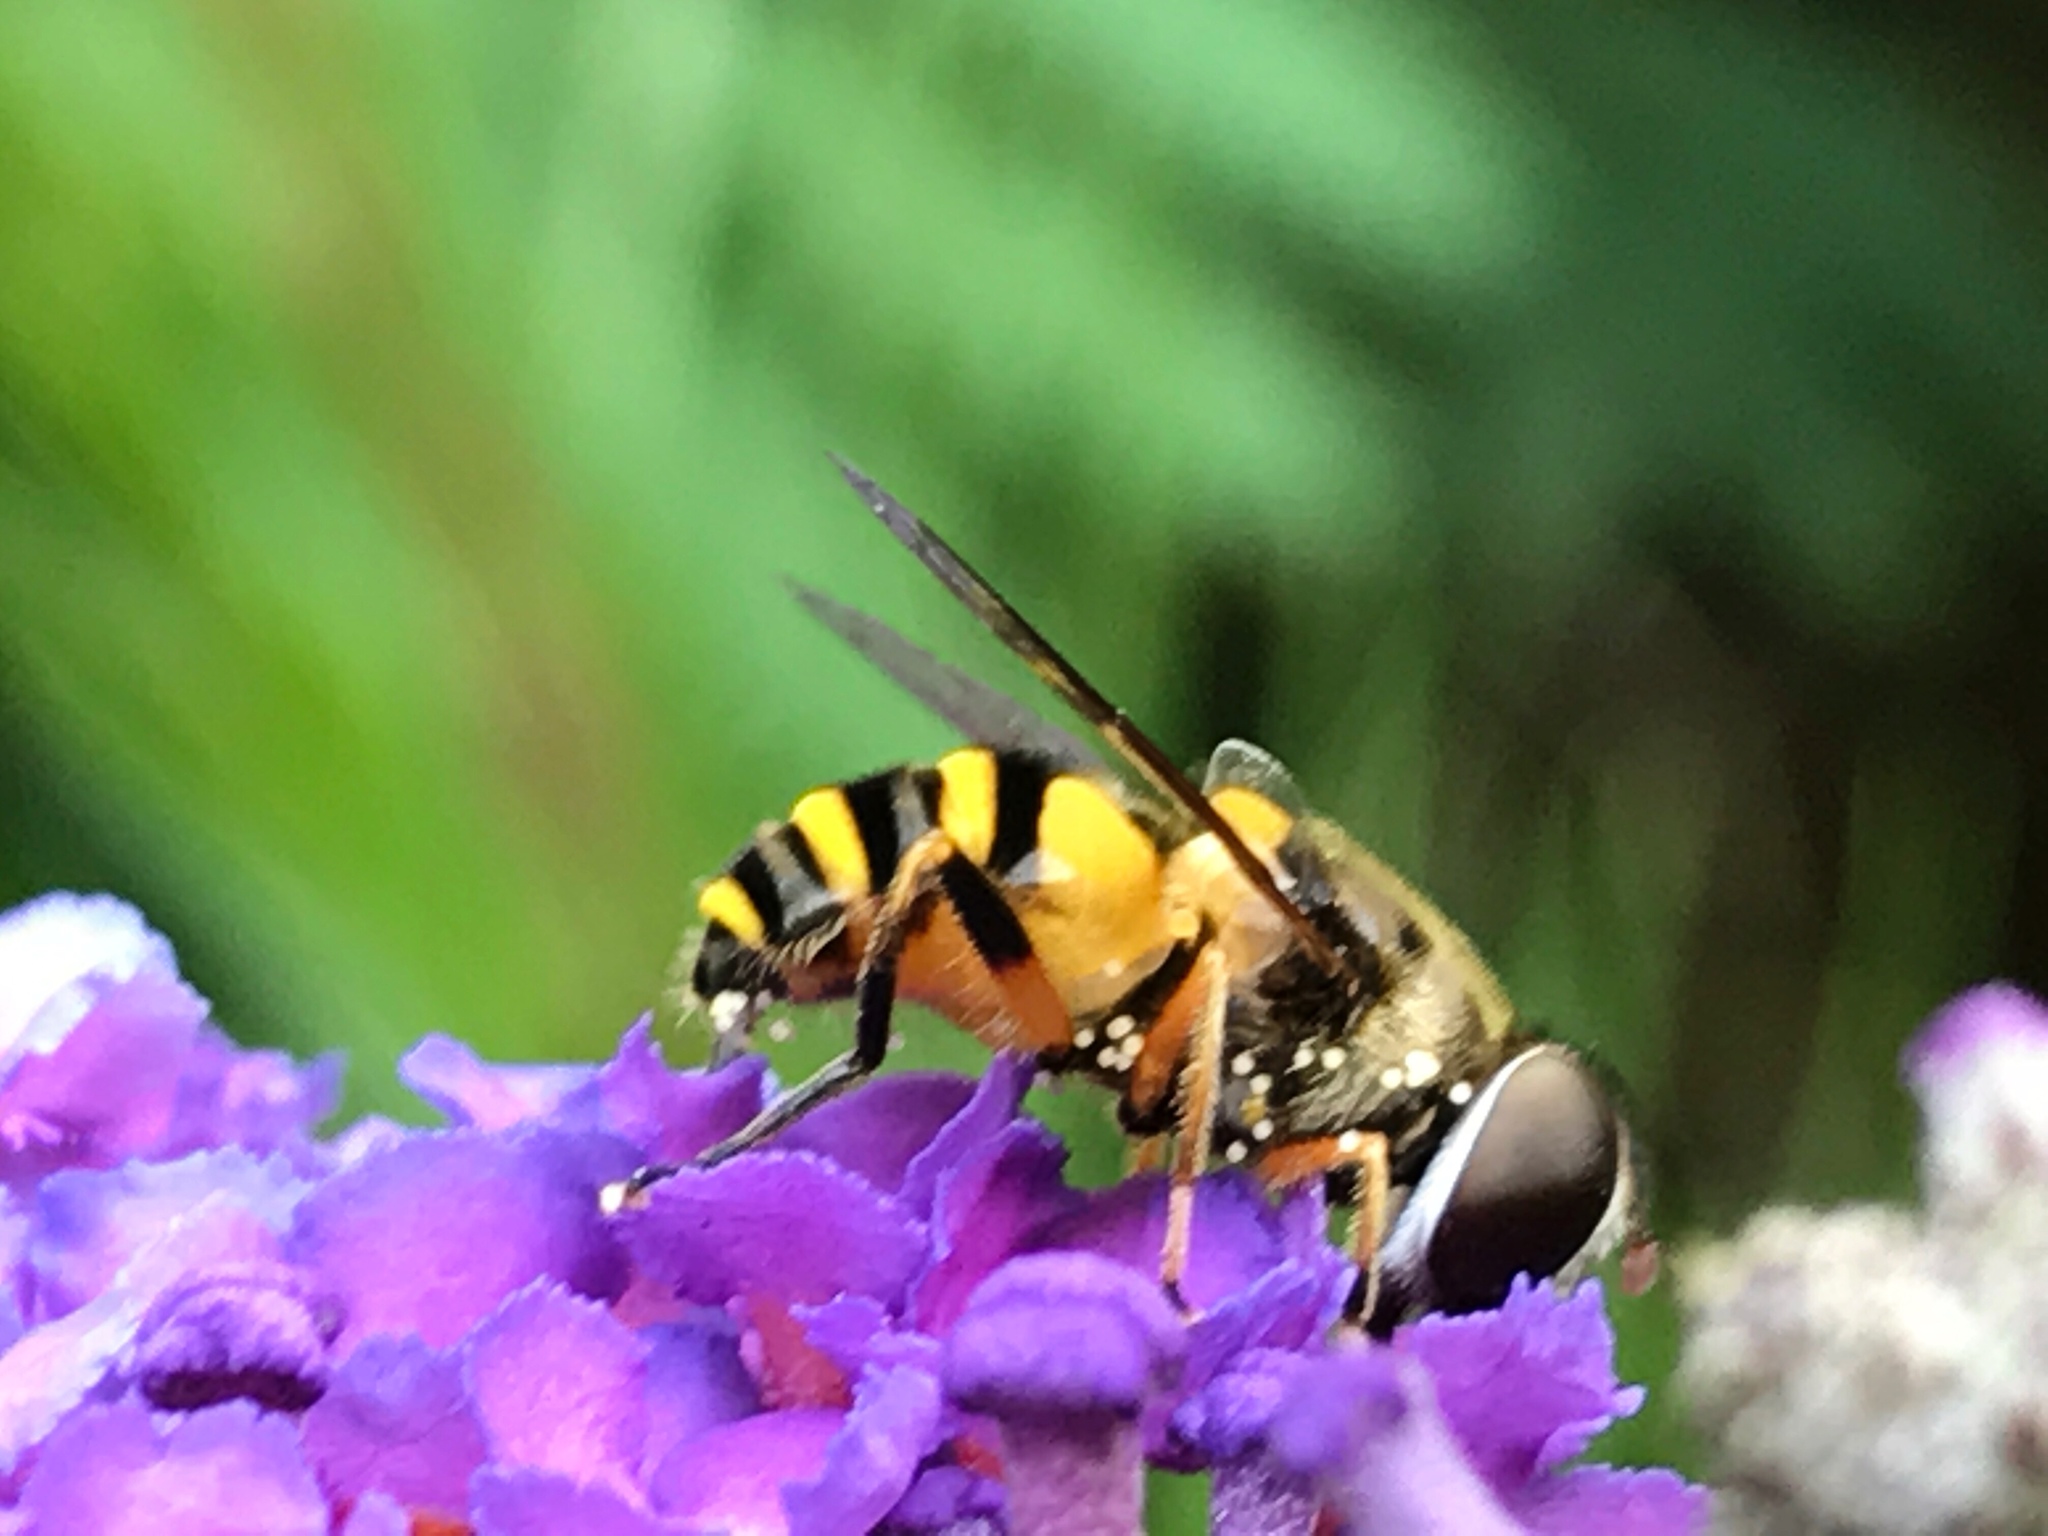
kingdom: Animalia
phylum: Arthropoda
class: Insecta
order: Diptera
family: Syrphidae
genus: Eristalis
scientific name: Eristalis transversa
